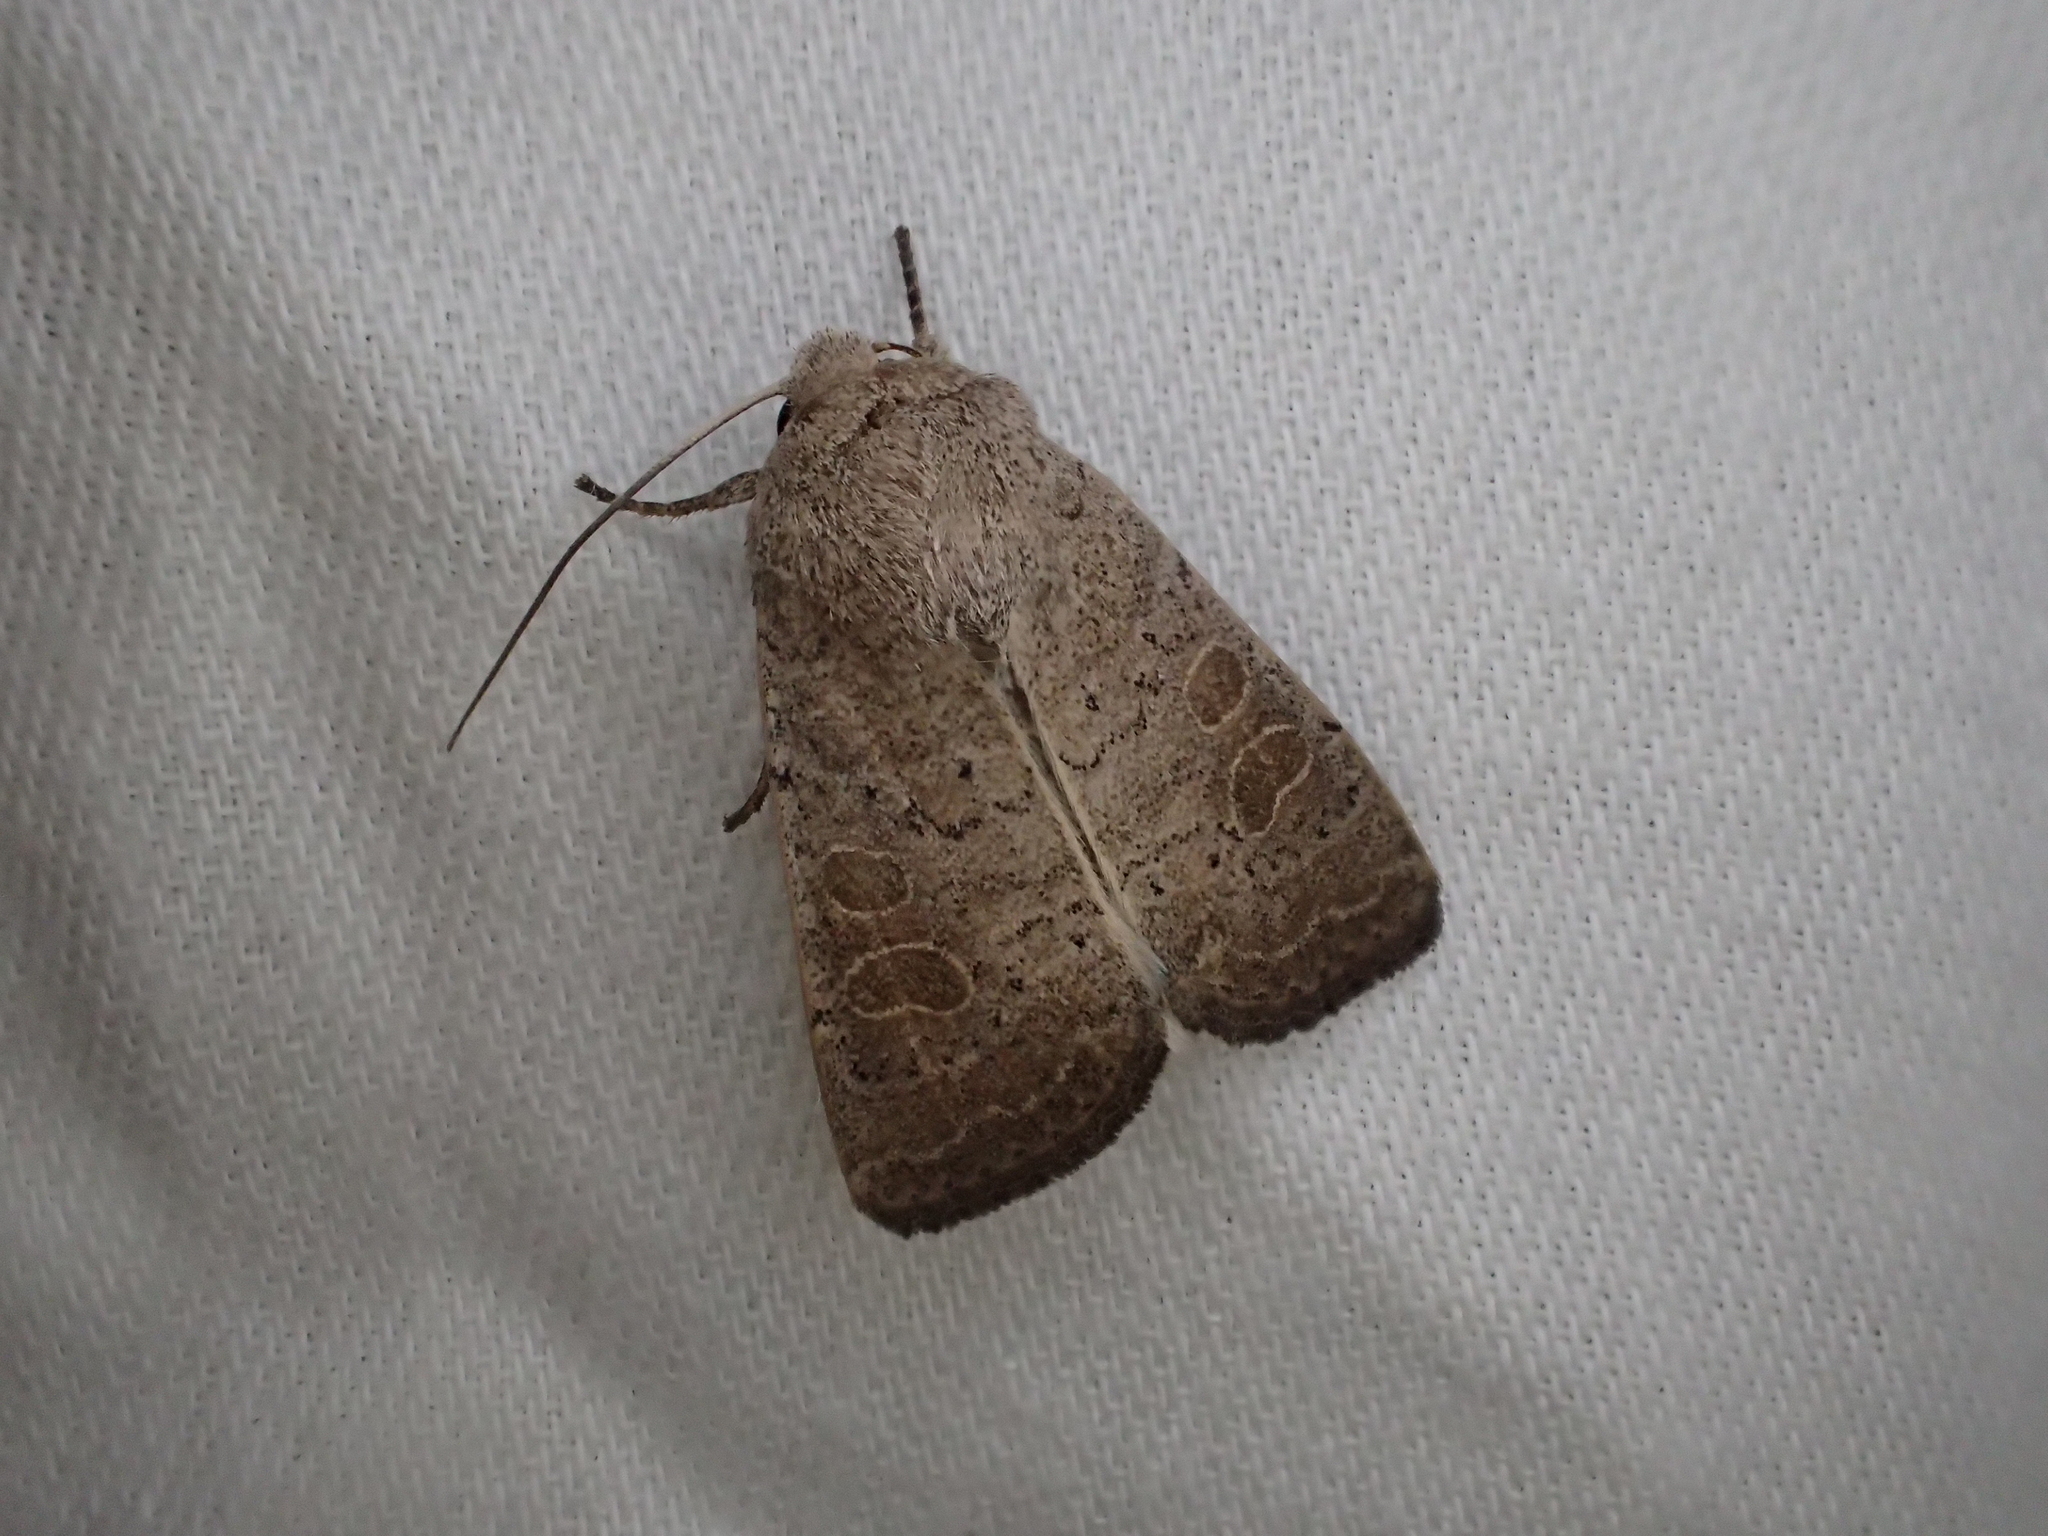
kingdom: Animalia
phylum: Arthropoda
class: Insecta
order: Lepidoptera
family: Noctuidae
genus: Hoplodrina
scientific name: Hoplodrina ambigua
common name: Vine's rustic
